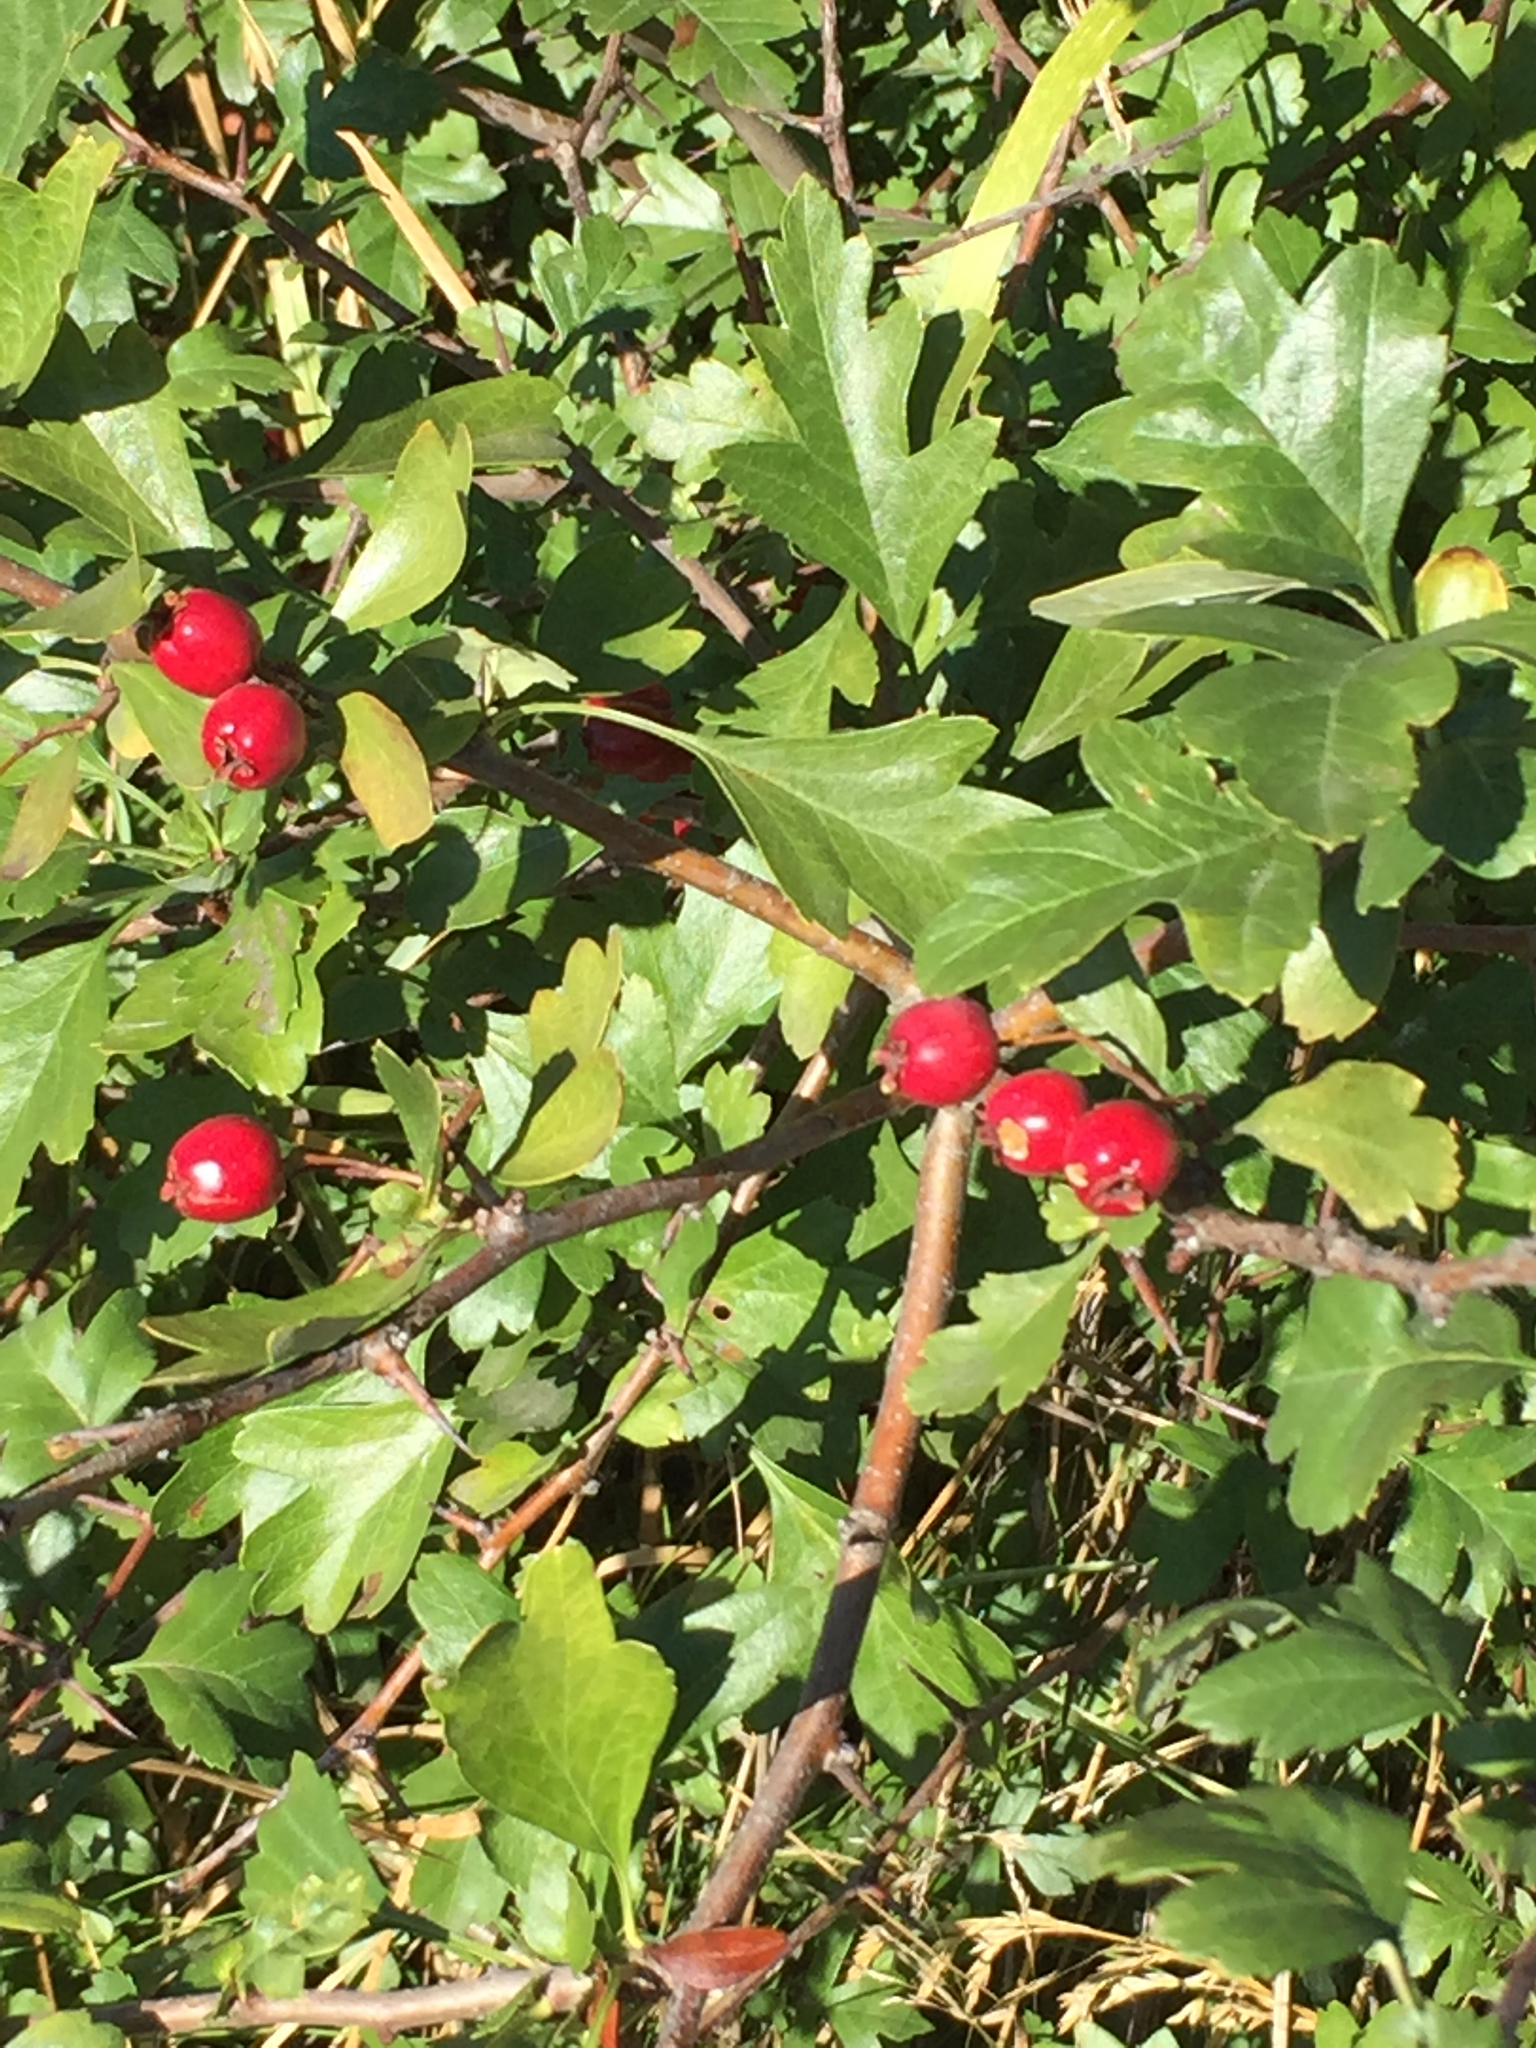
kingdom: Plantae
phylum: Tracheophyta
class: Magnoliopsida
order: Rosales
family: Rosaceae
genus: Crataegus
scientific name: Crataegus monogyna
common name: Hawthorn
